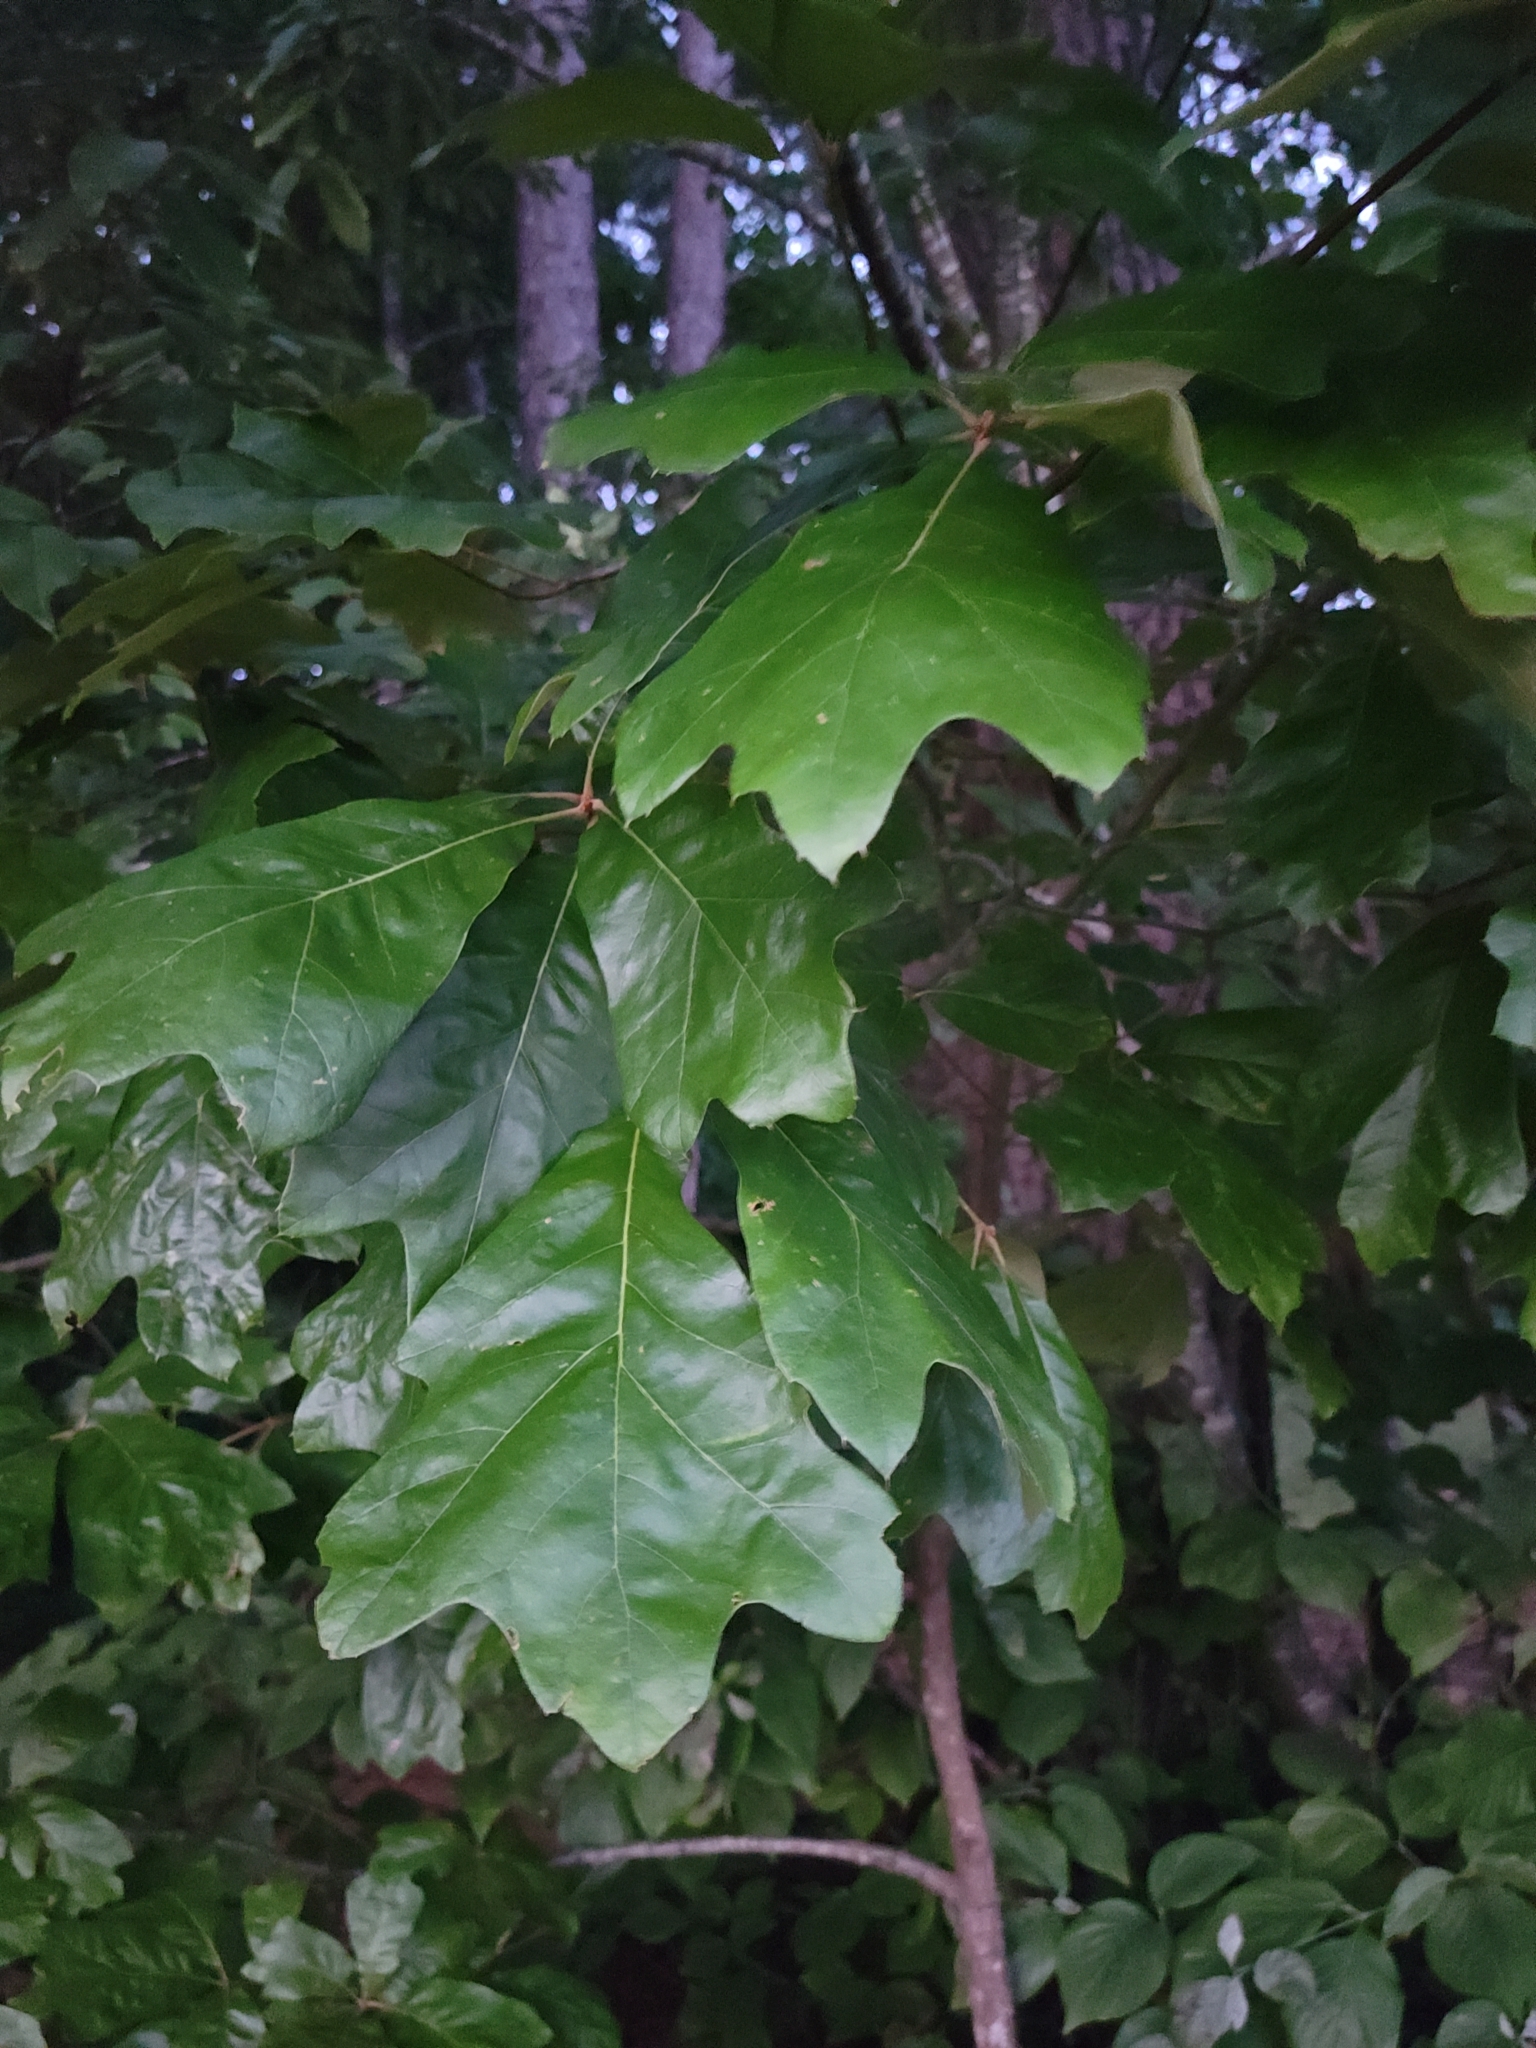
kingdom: Plantae
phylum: Tracheophyta
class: Magnoliopsida
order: Fagales
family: Fagaceae
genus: Quercus
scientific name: Quercus falcata
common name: Southern red oak
